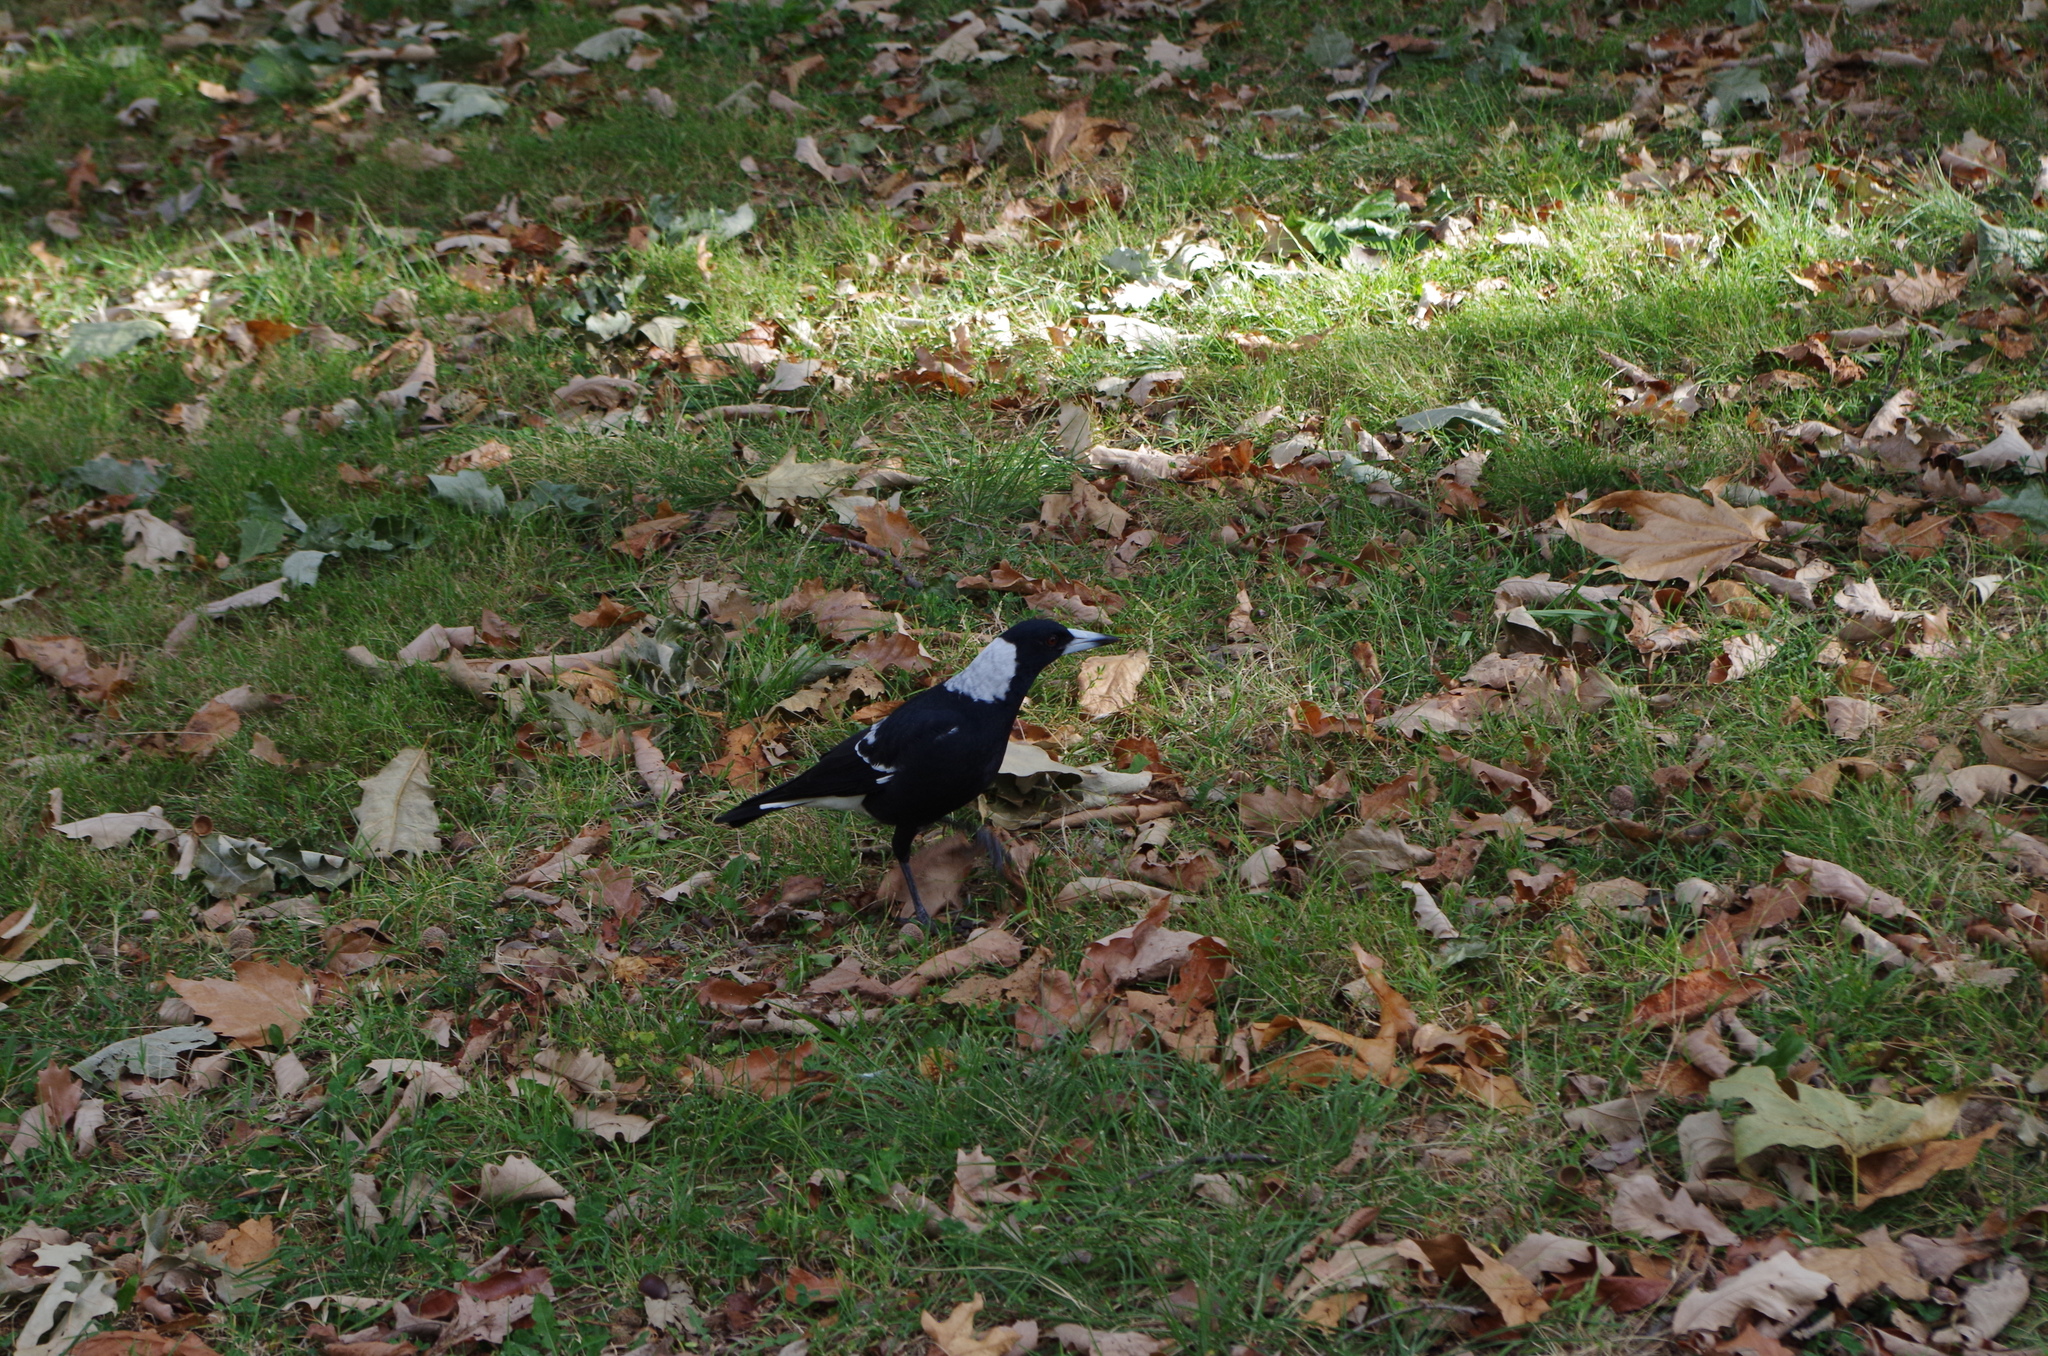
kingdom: Animalia
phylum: Chordata
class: Aves
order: Passeriformes
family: Cracticidae
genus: Gymnorhina
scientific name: Gymnorhina tibicen
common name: Australian magpie
